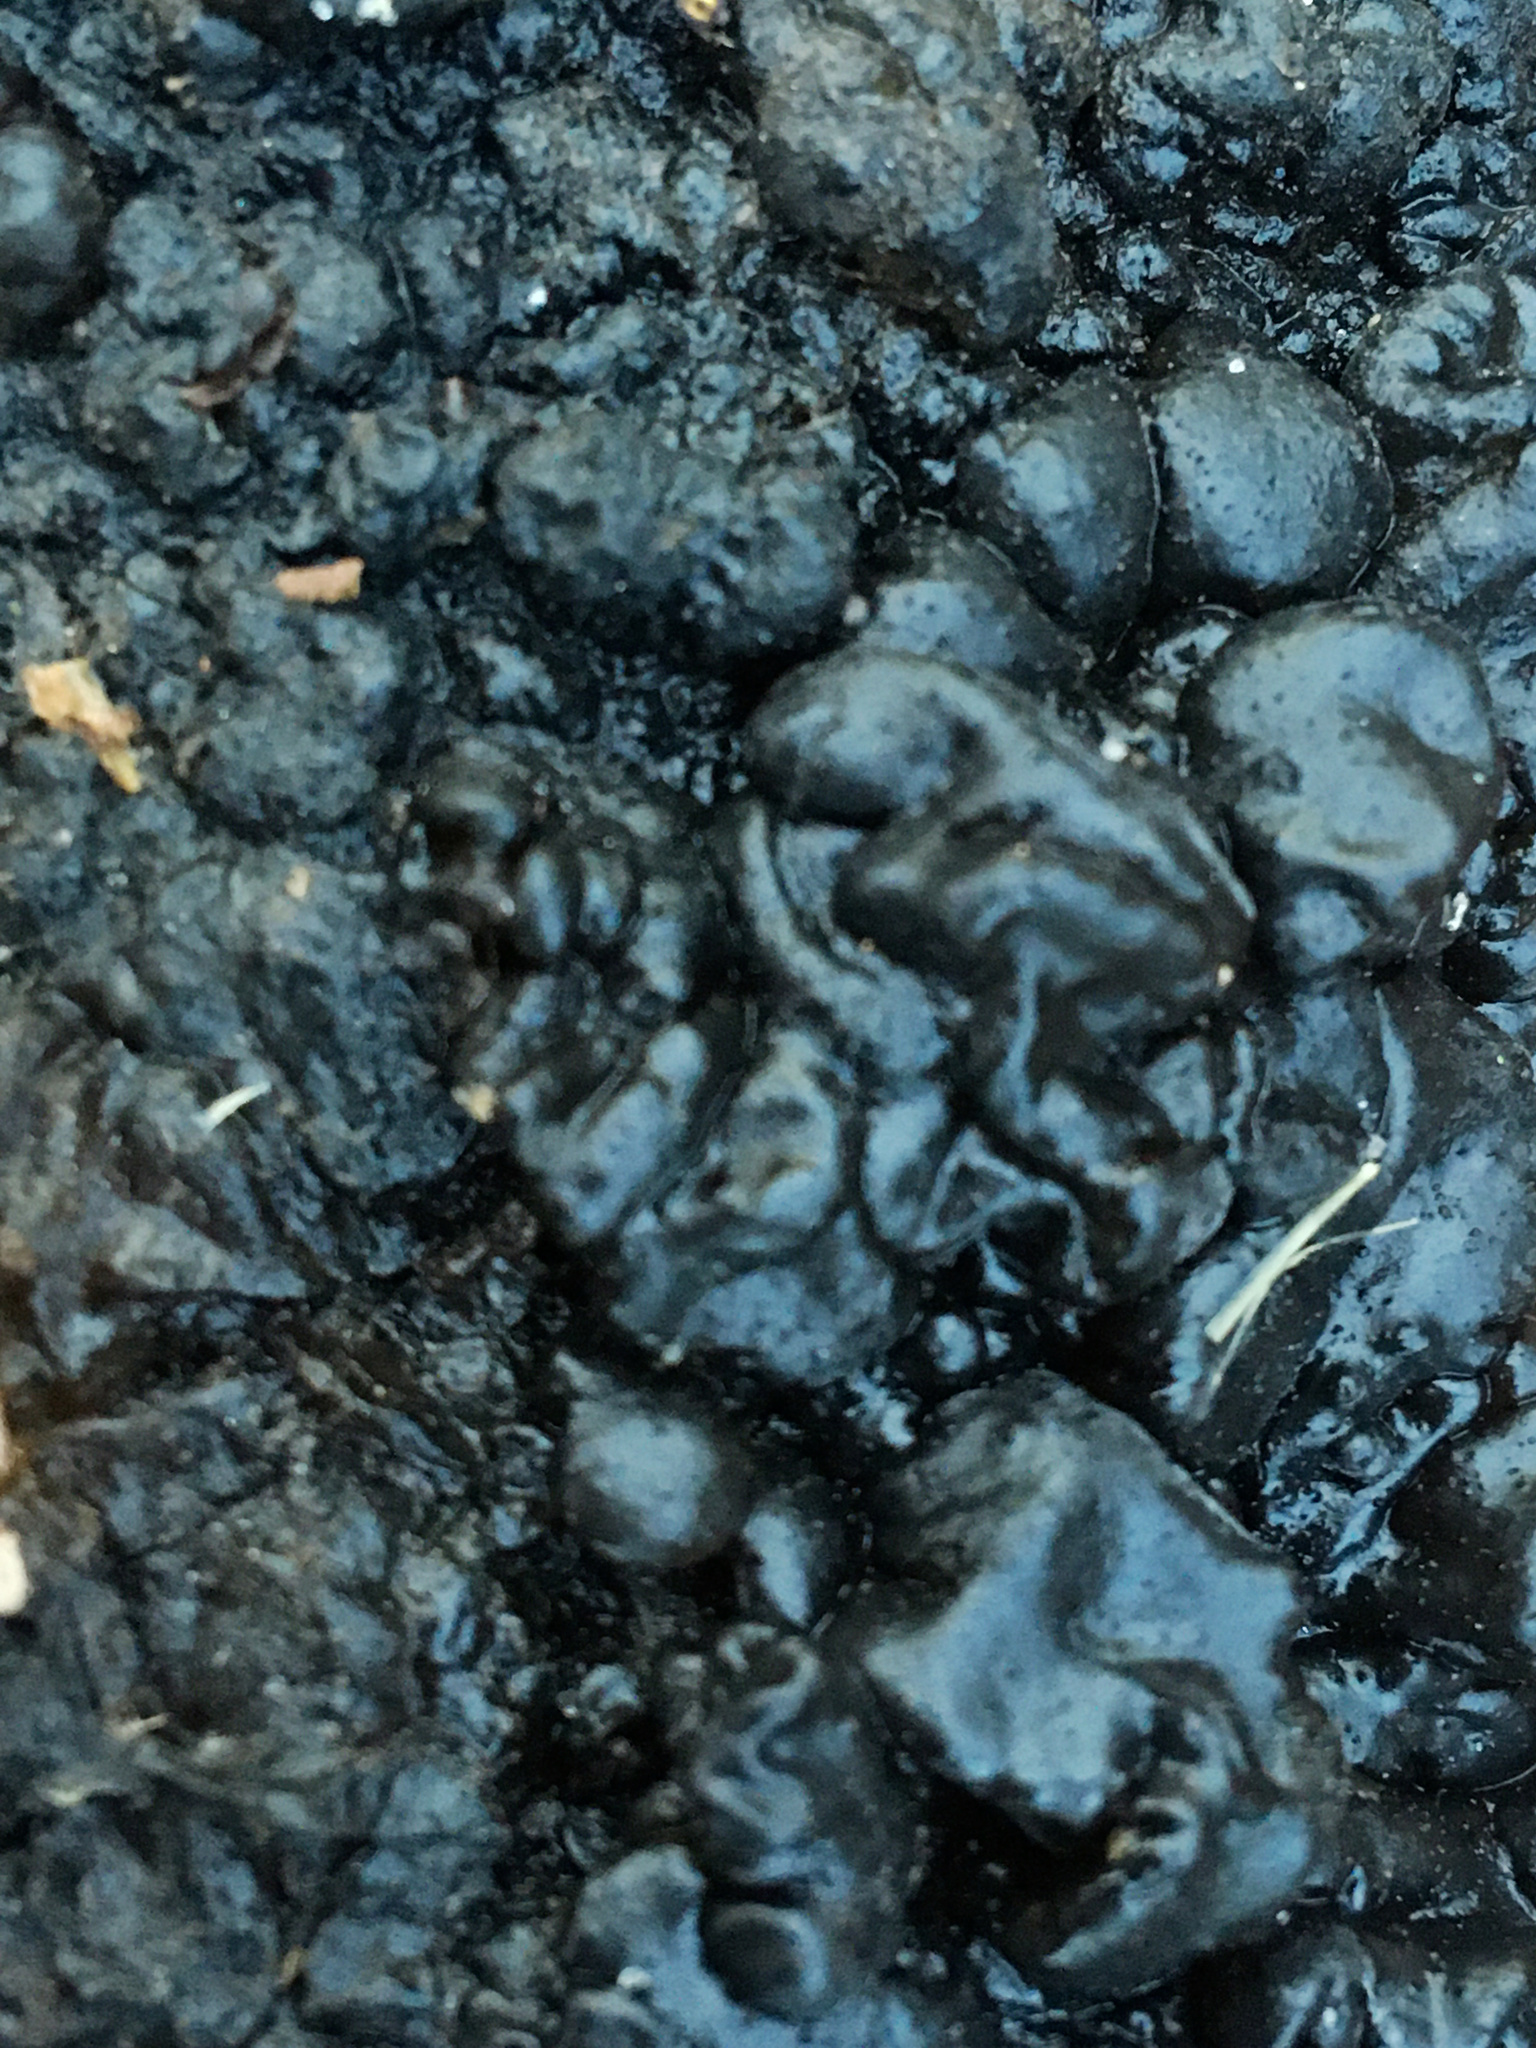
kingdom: Fungi
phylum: Basidiomycota
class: Agaricomycetes
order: Auriculariales
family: Auriculariaceae
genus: Exidia
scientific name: Exidia glandulosa
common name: Witches' butter
